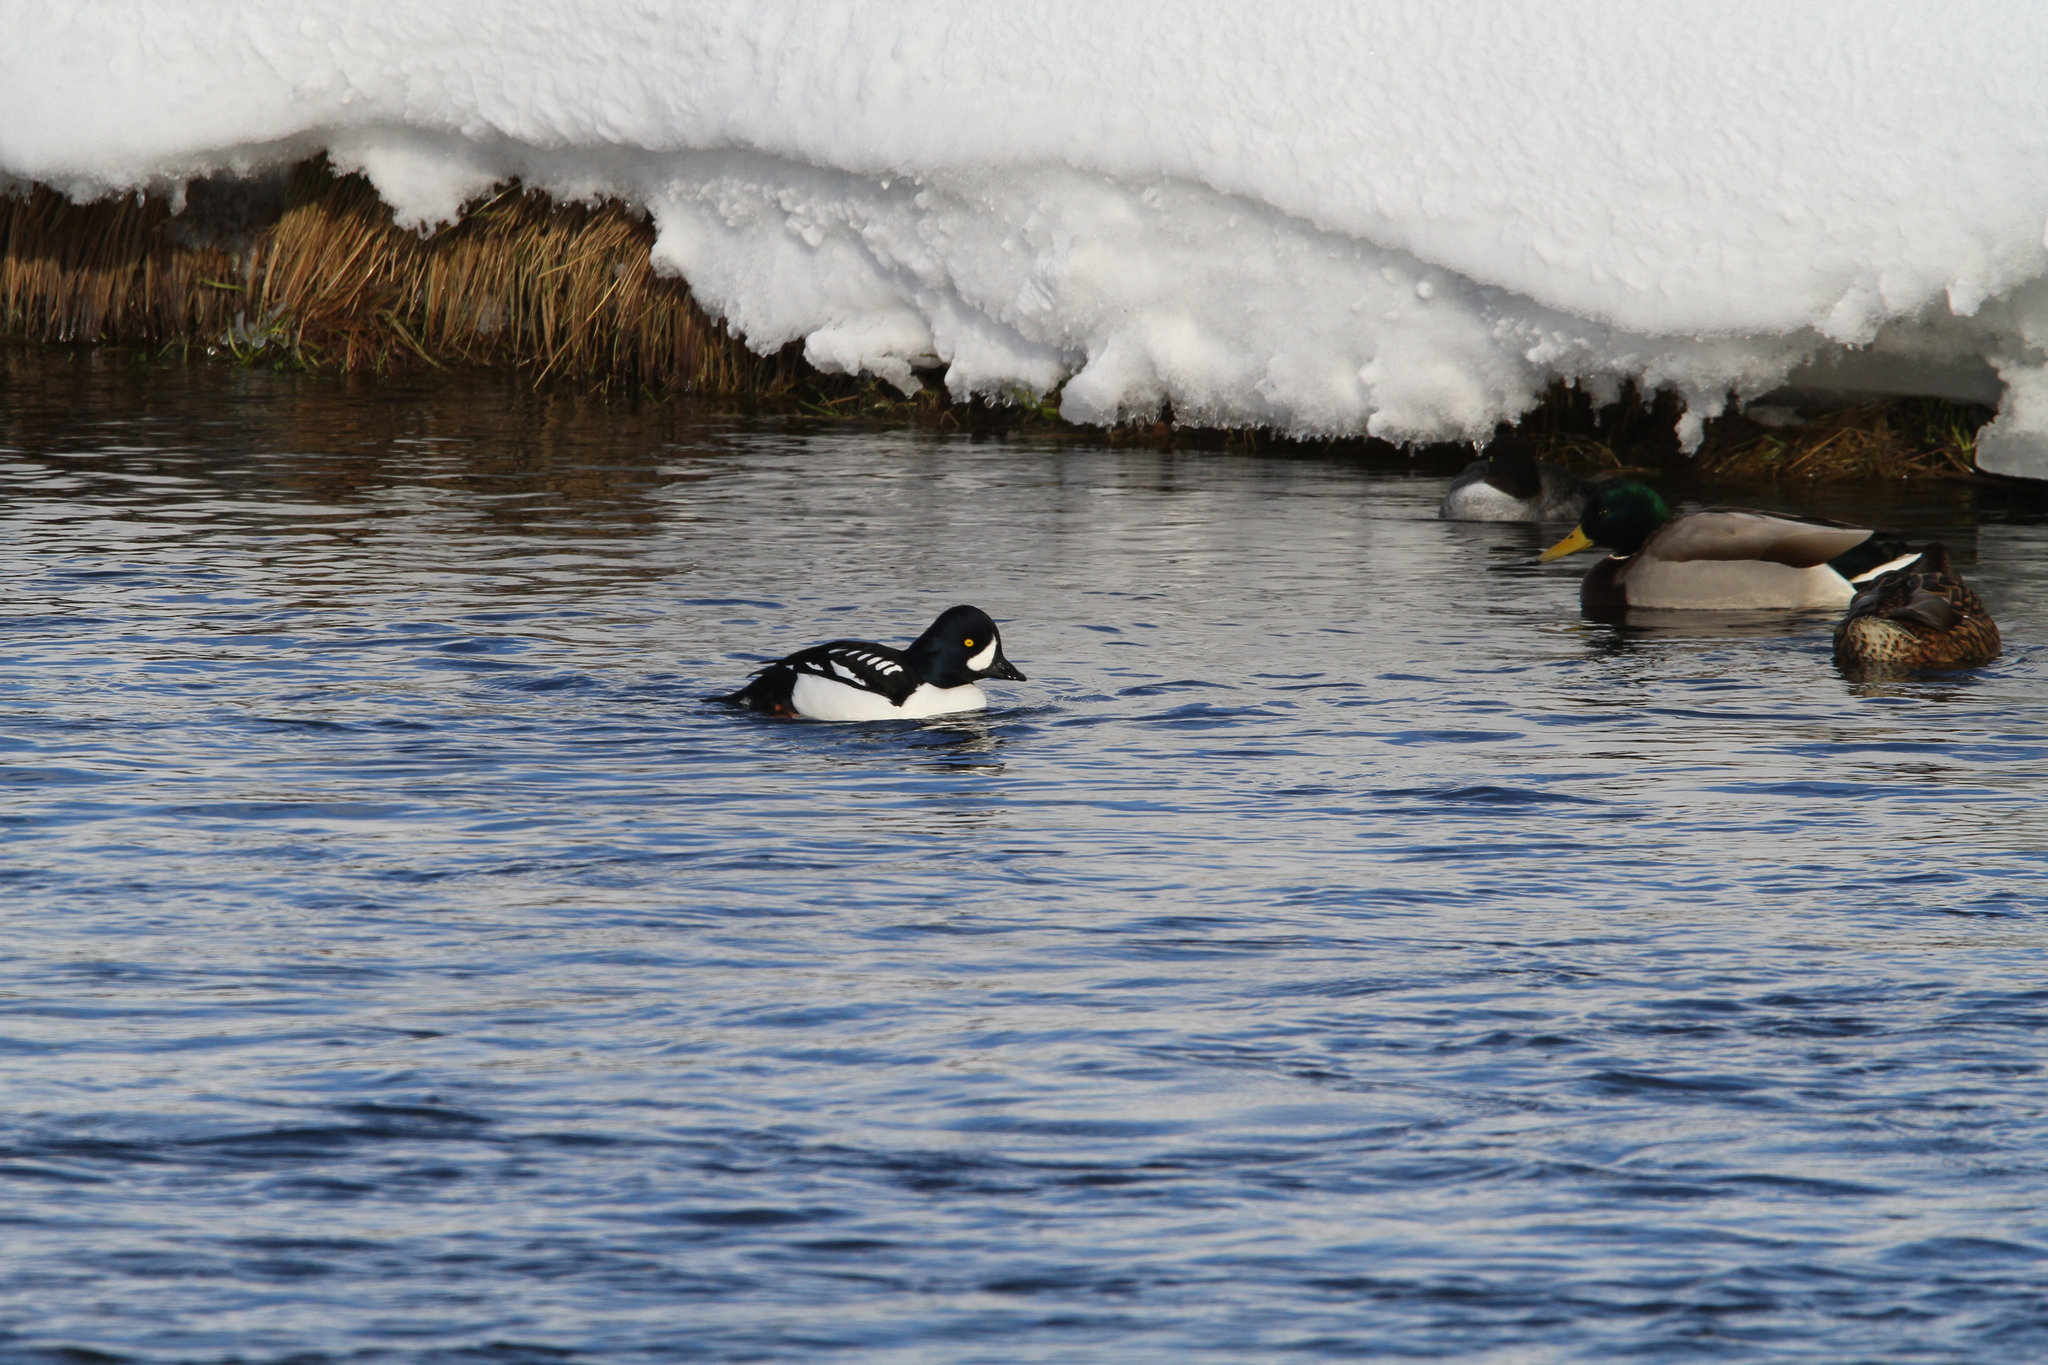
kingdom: Animalia
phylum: Chordata
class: Aves
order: Anseriformes
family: Anatidae
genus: Bucephala
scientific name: Bucephala islandica
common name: Barrow's goldeneye
